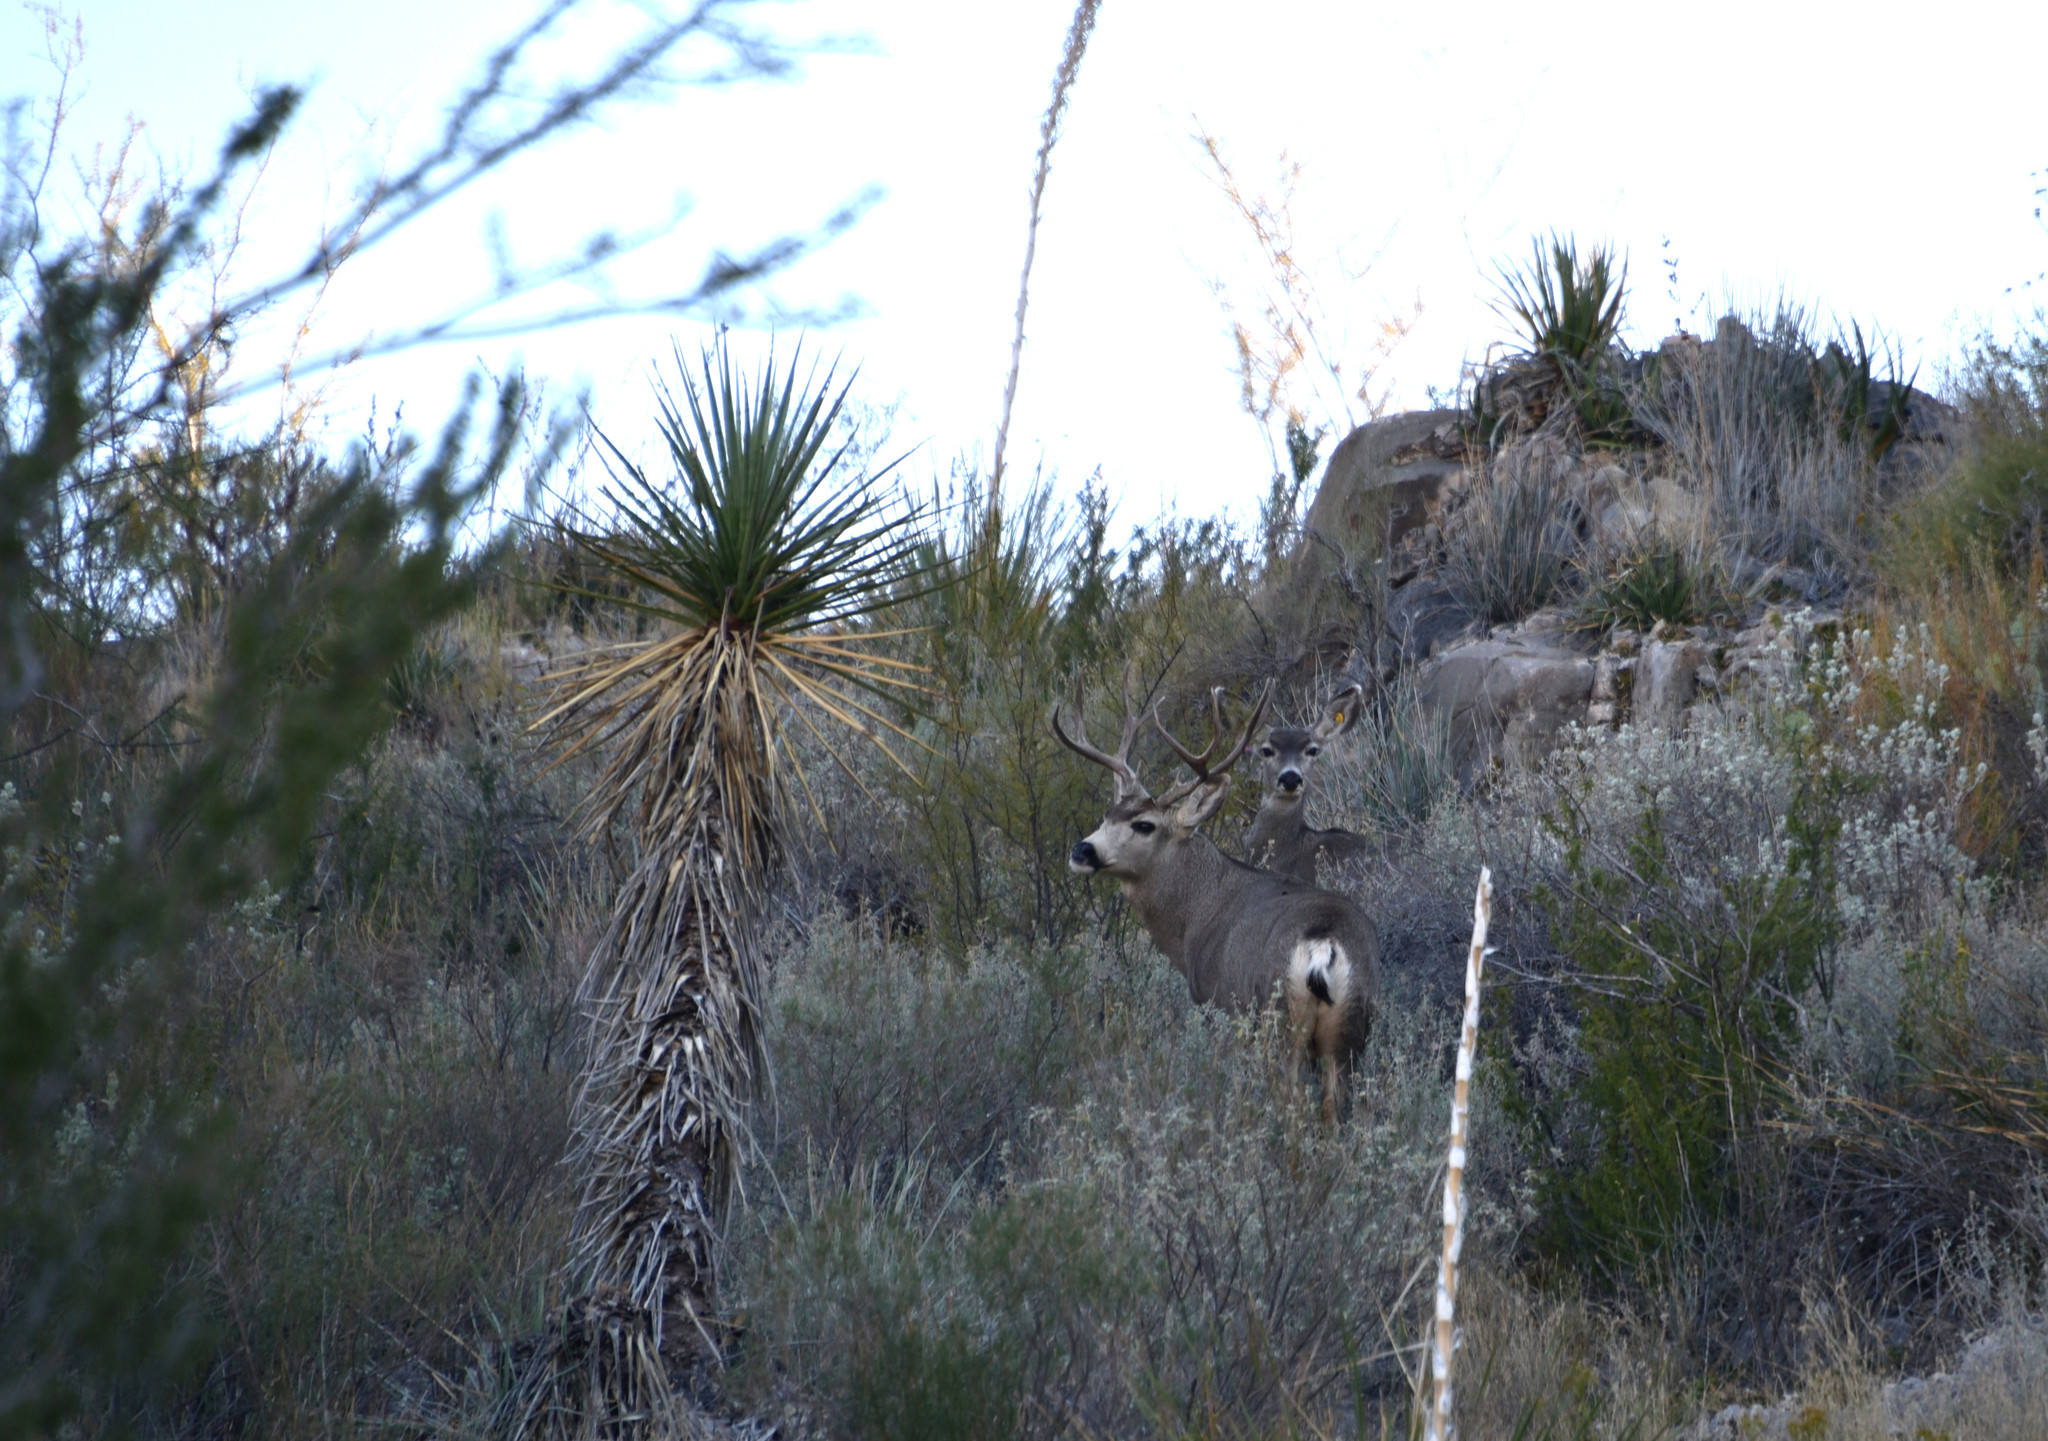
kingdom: Animalia
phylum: Chordata
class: Mammalia
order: Artiodactyla
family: Cervidae
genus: Odocoileus
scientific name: Odocoileus hemionus
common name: Mule deer
